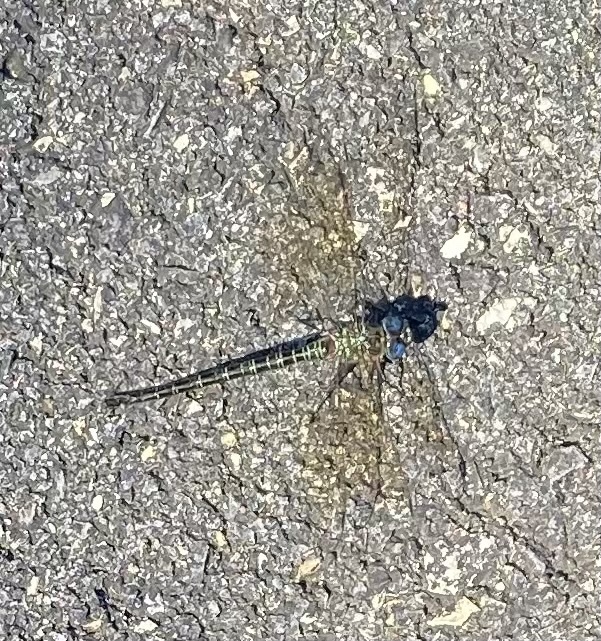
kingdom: Animalia
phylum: Arthropoda
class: Insecta
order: Odonata
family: Aeshnidae
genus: Epiaeschna
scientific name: Epiaeschna heros
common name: Swamp darner
